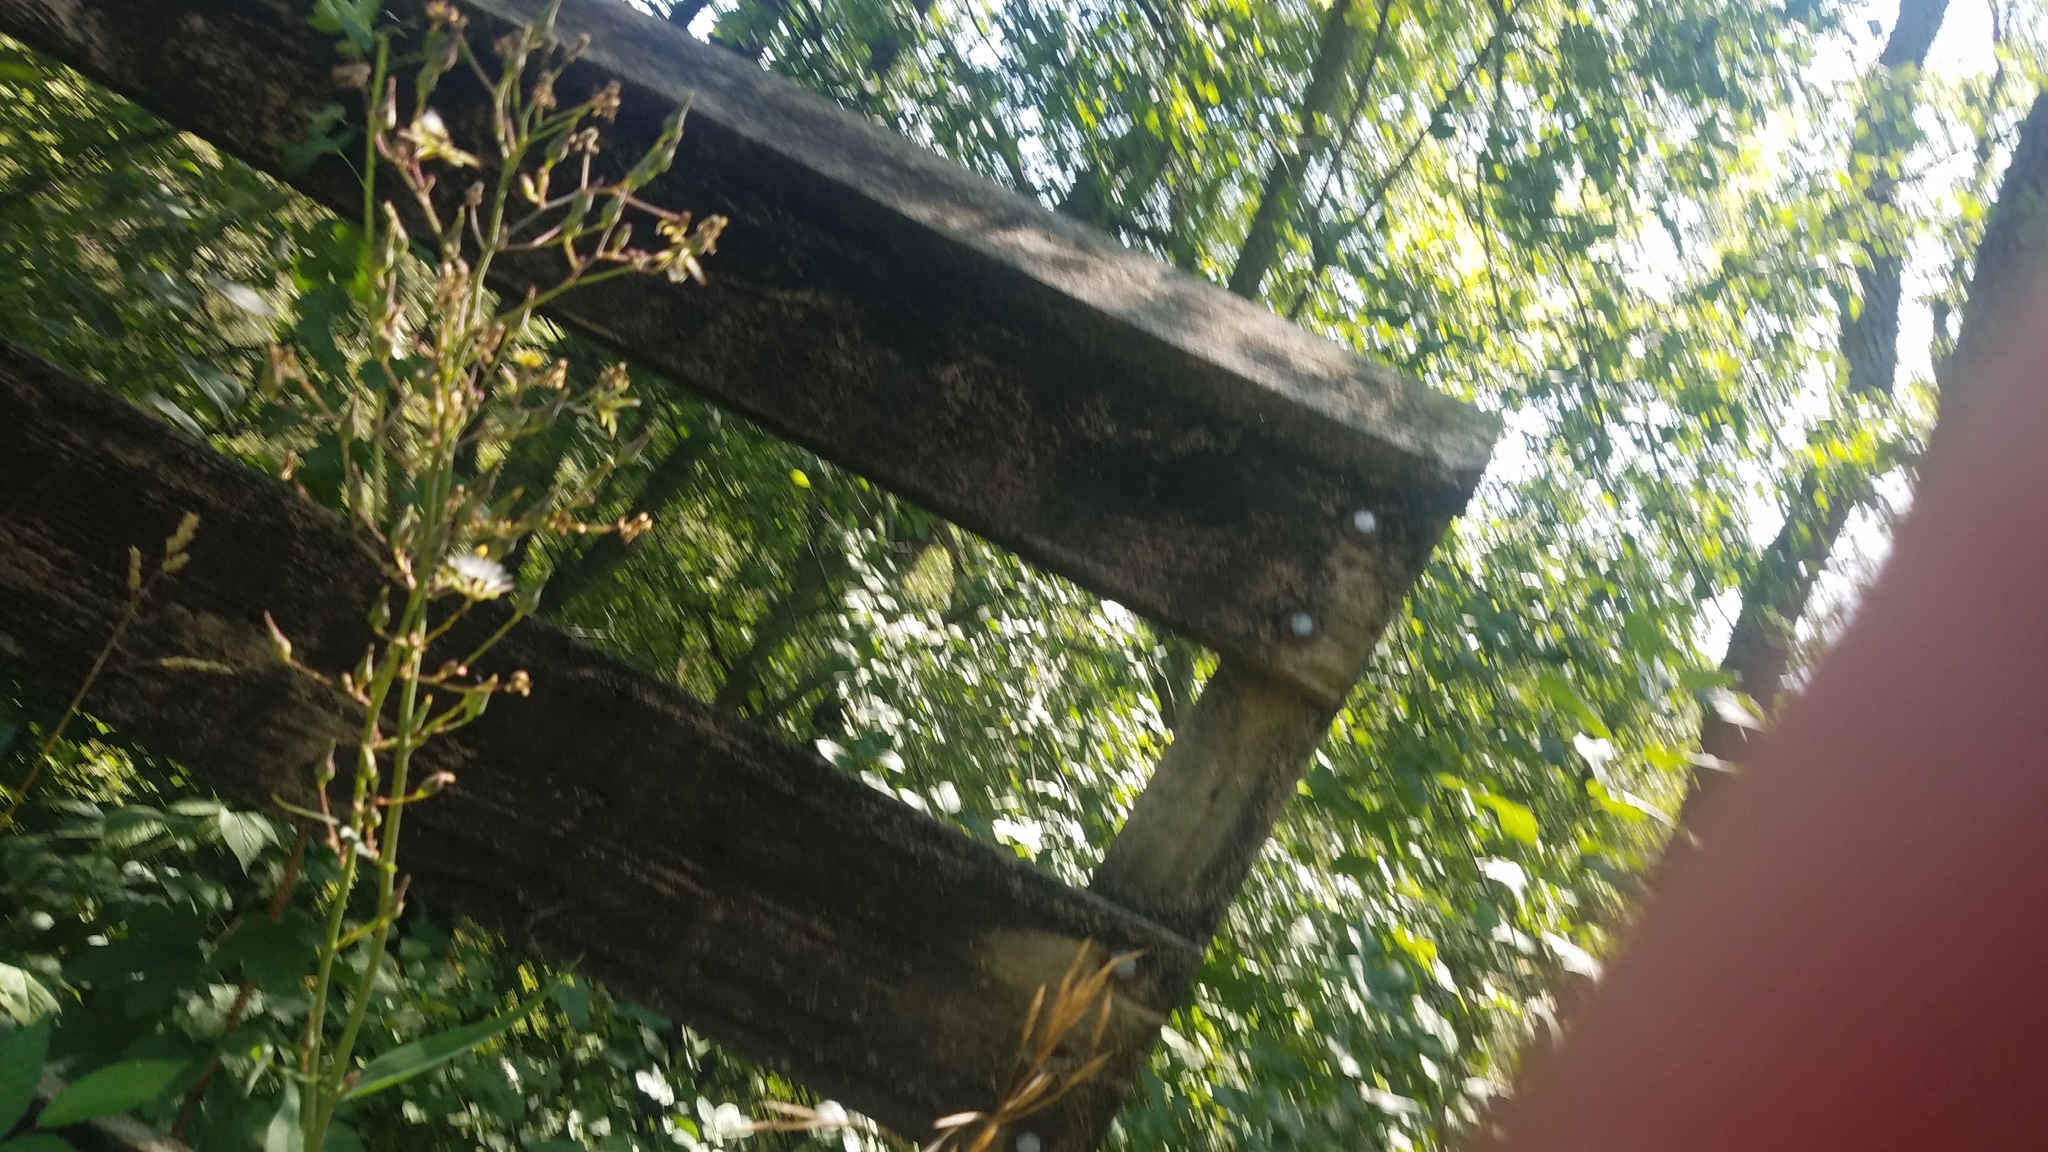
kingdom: Plantae
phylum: Tracheophyta
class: Magnoliopsida
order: Asterales
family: Asteraceae
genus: Lactuca
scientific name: Lactuca canadensis
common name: Canada lettuce
